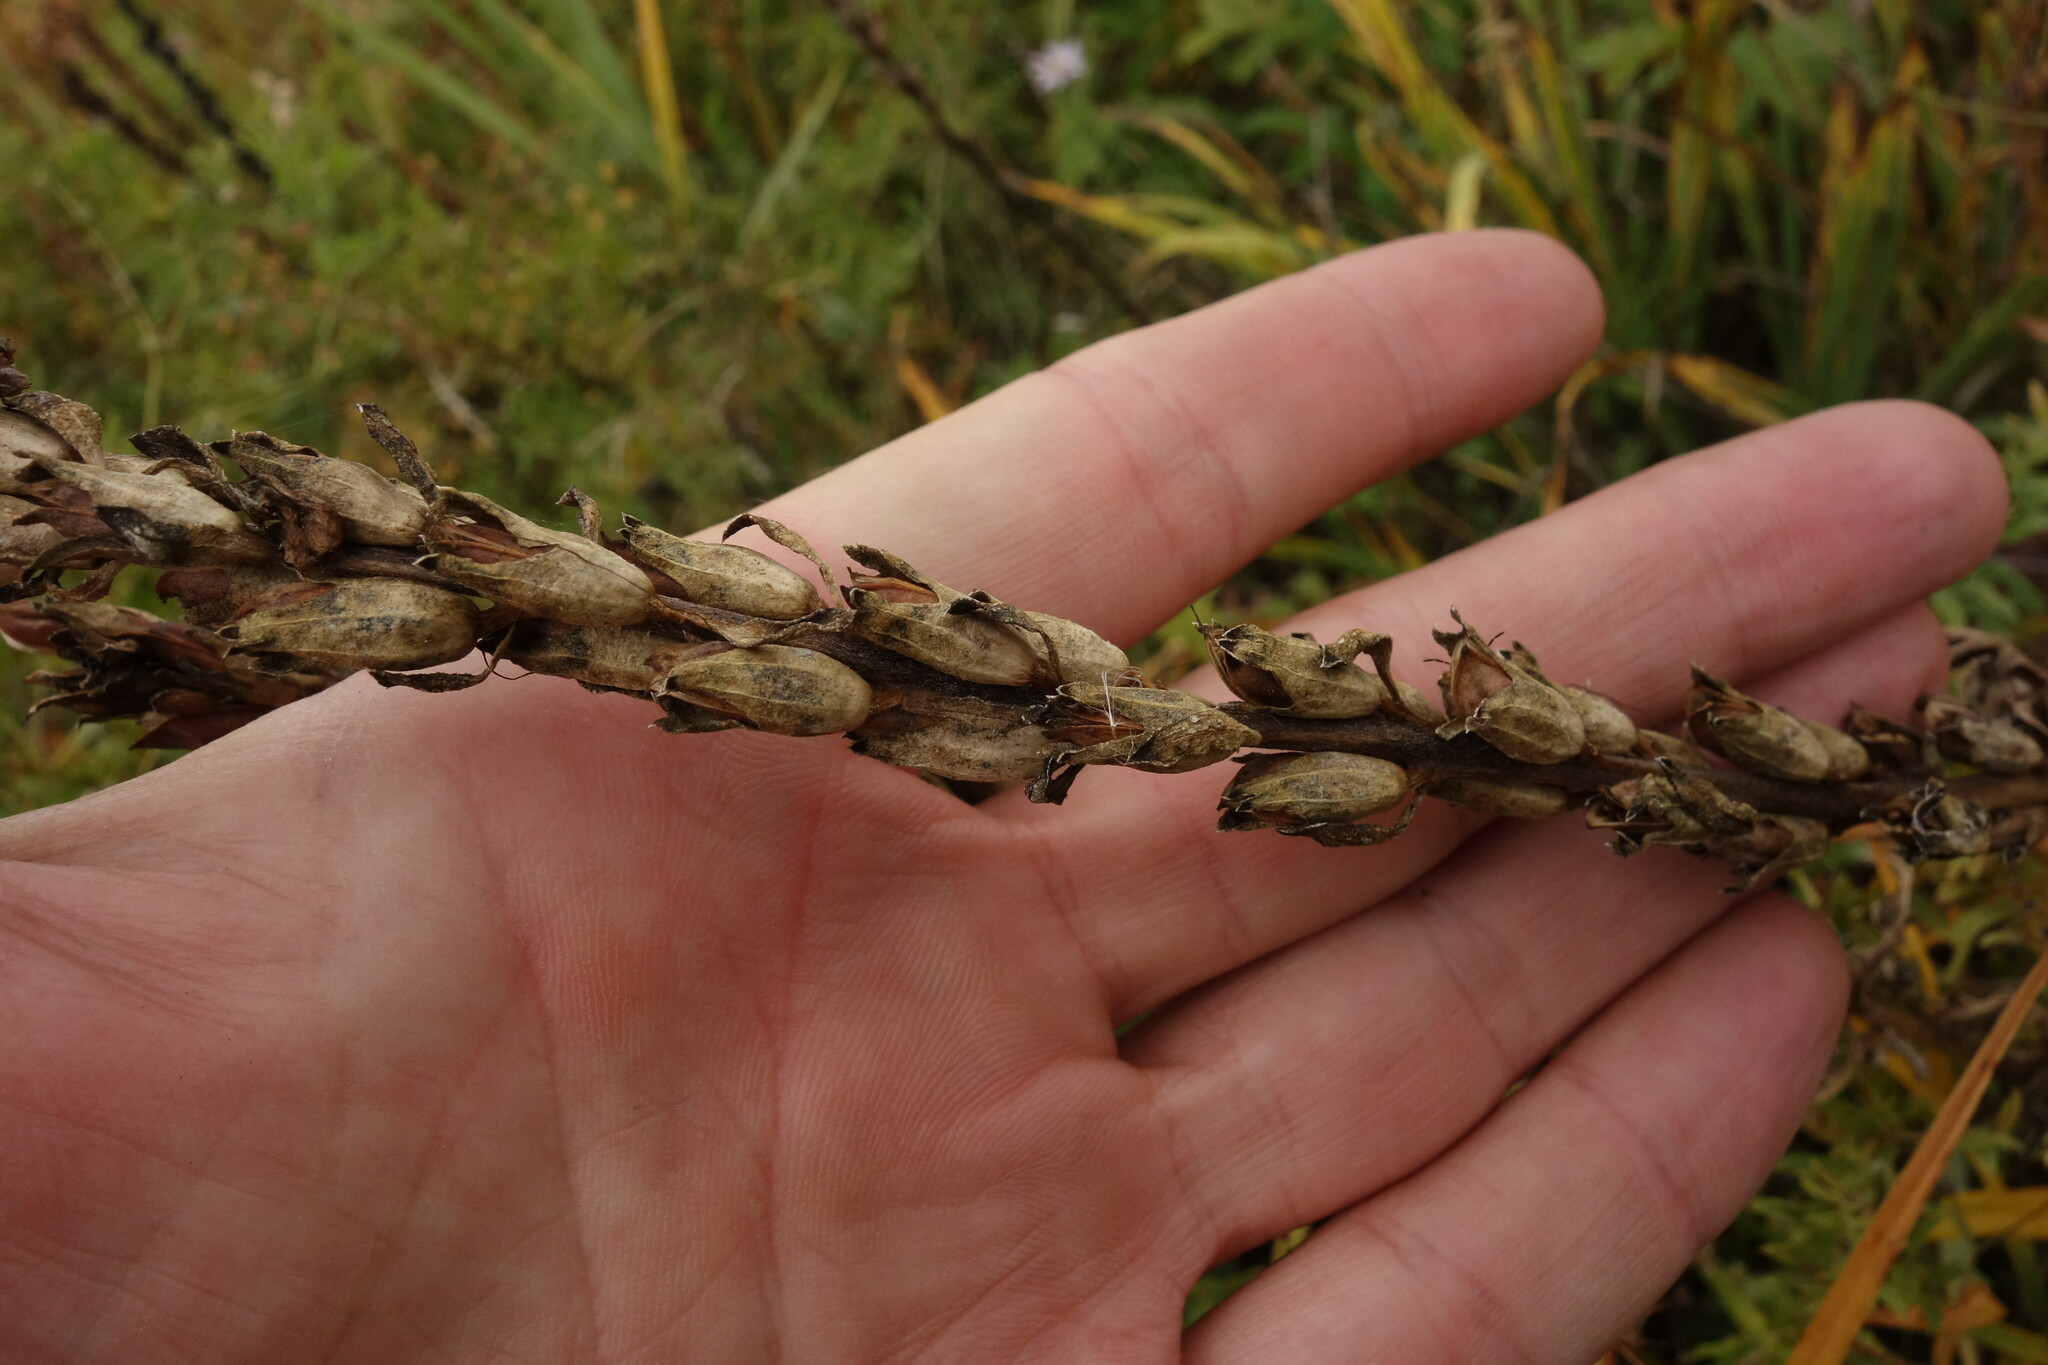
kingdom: Plantae
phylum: Tracheophyta
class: Magnoliopsida
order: Lamiales
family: Orobanchaceae
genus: Pedicularis
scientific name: Pedicularis striata
